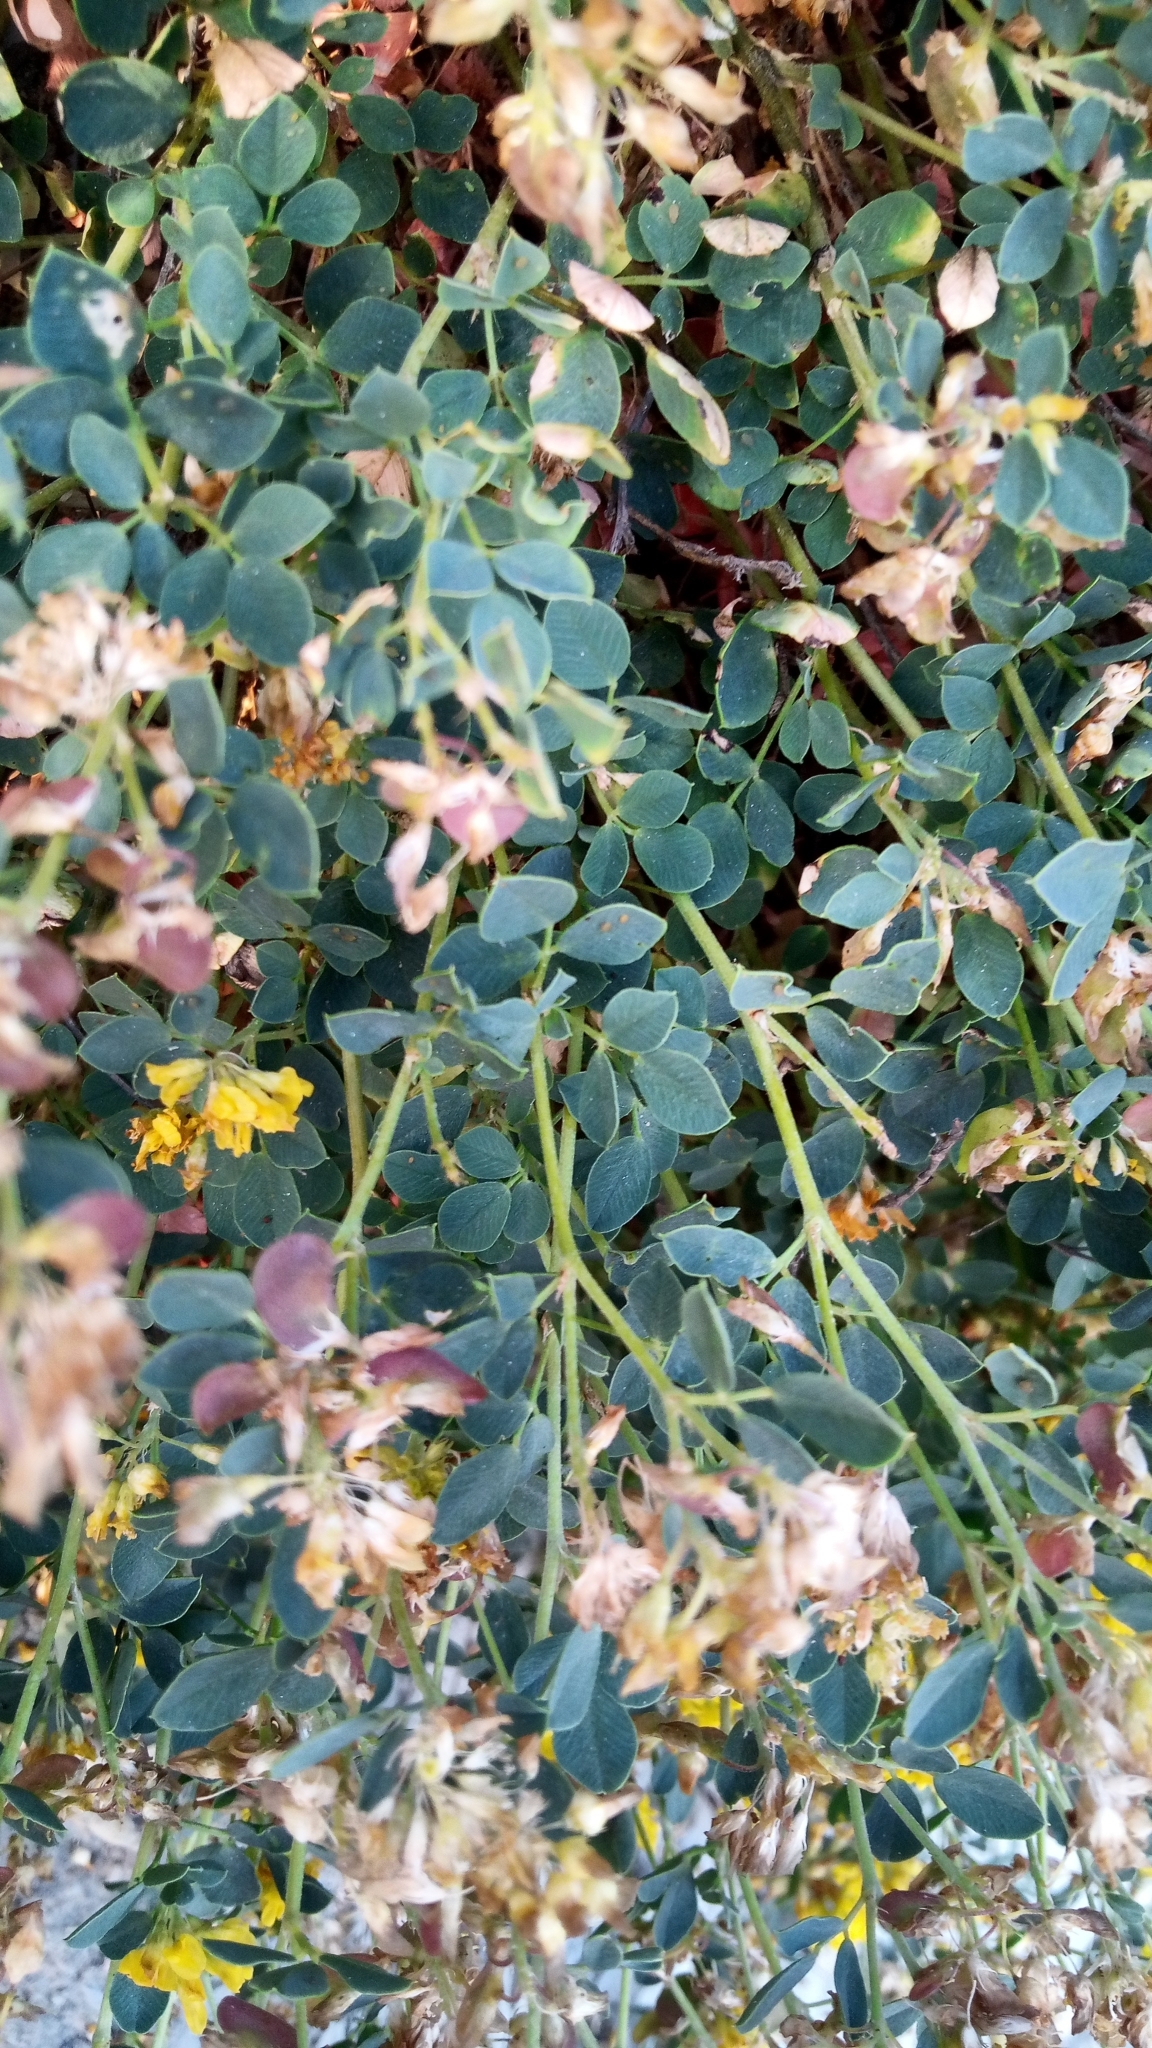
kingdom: Plantae
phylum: Tracheophyta
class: Magnoliopsida
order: Fabales
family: Fabaceae
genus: Medicago
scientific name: Medicago cretacea
